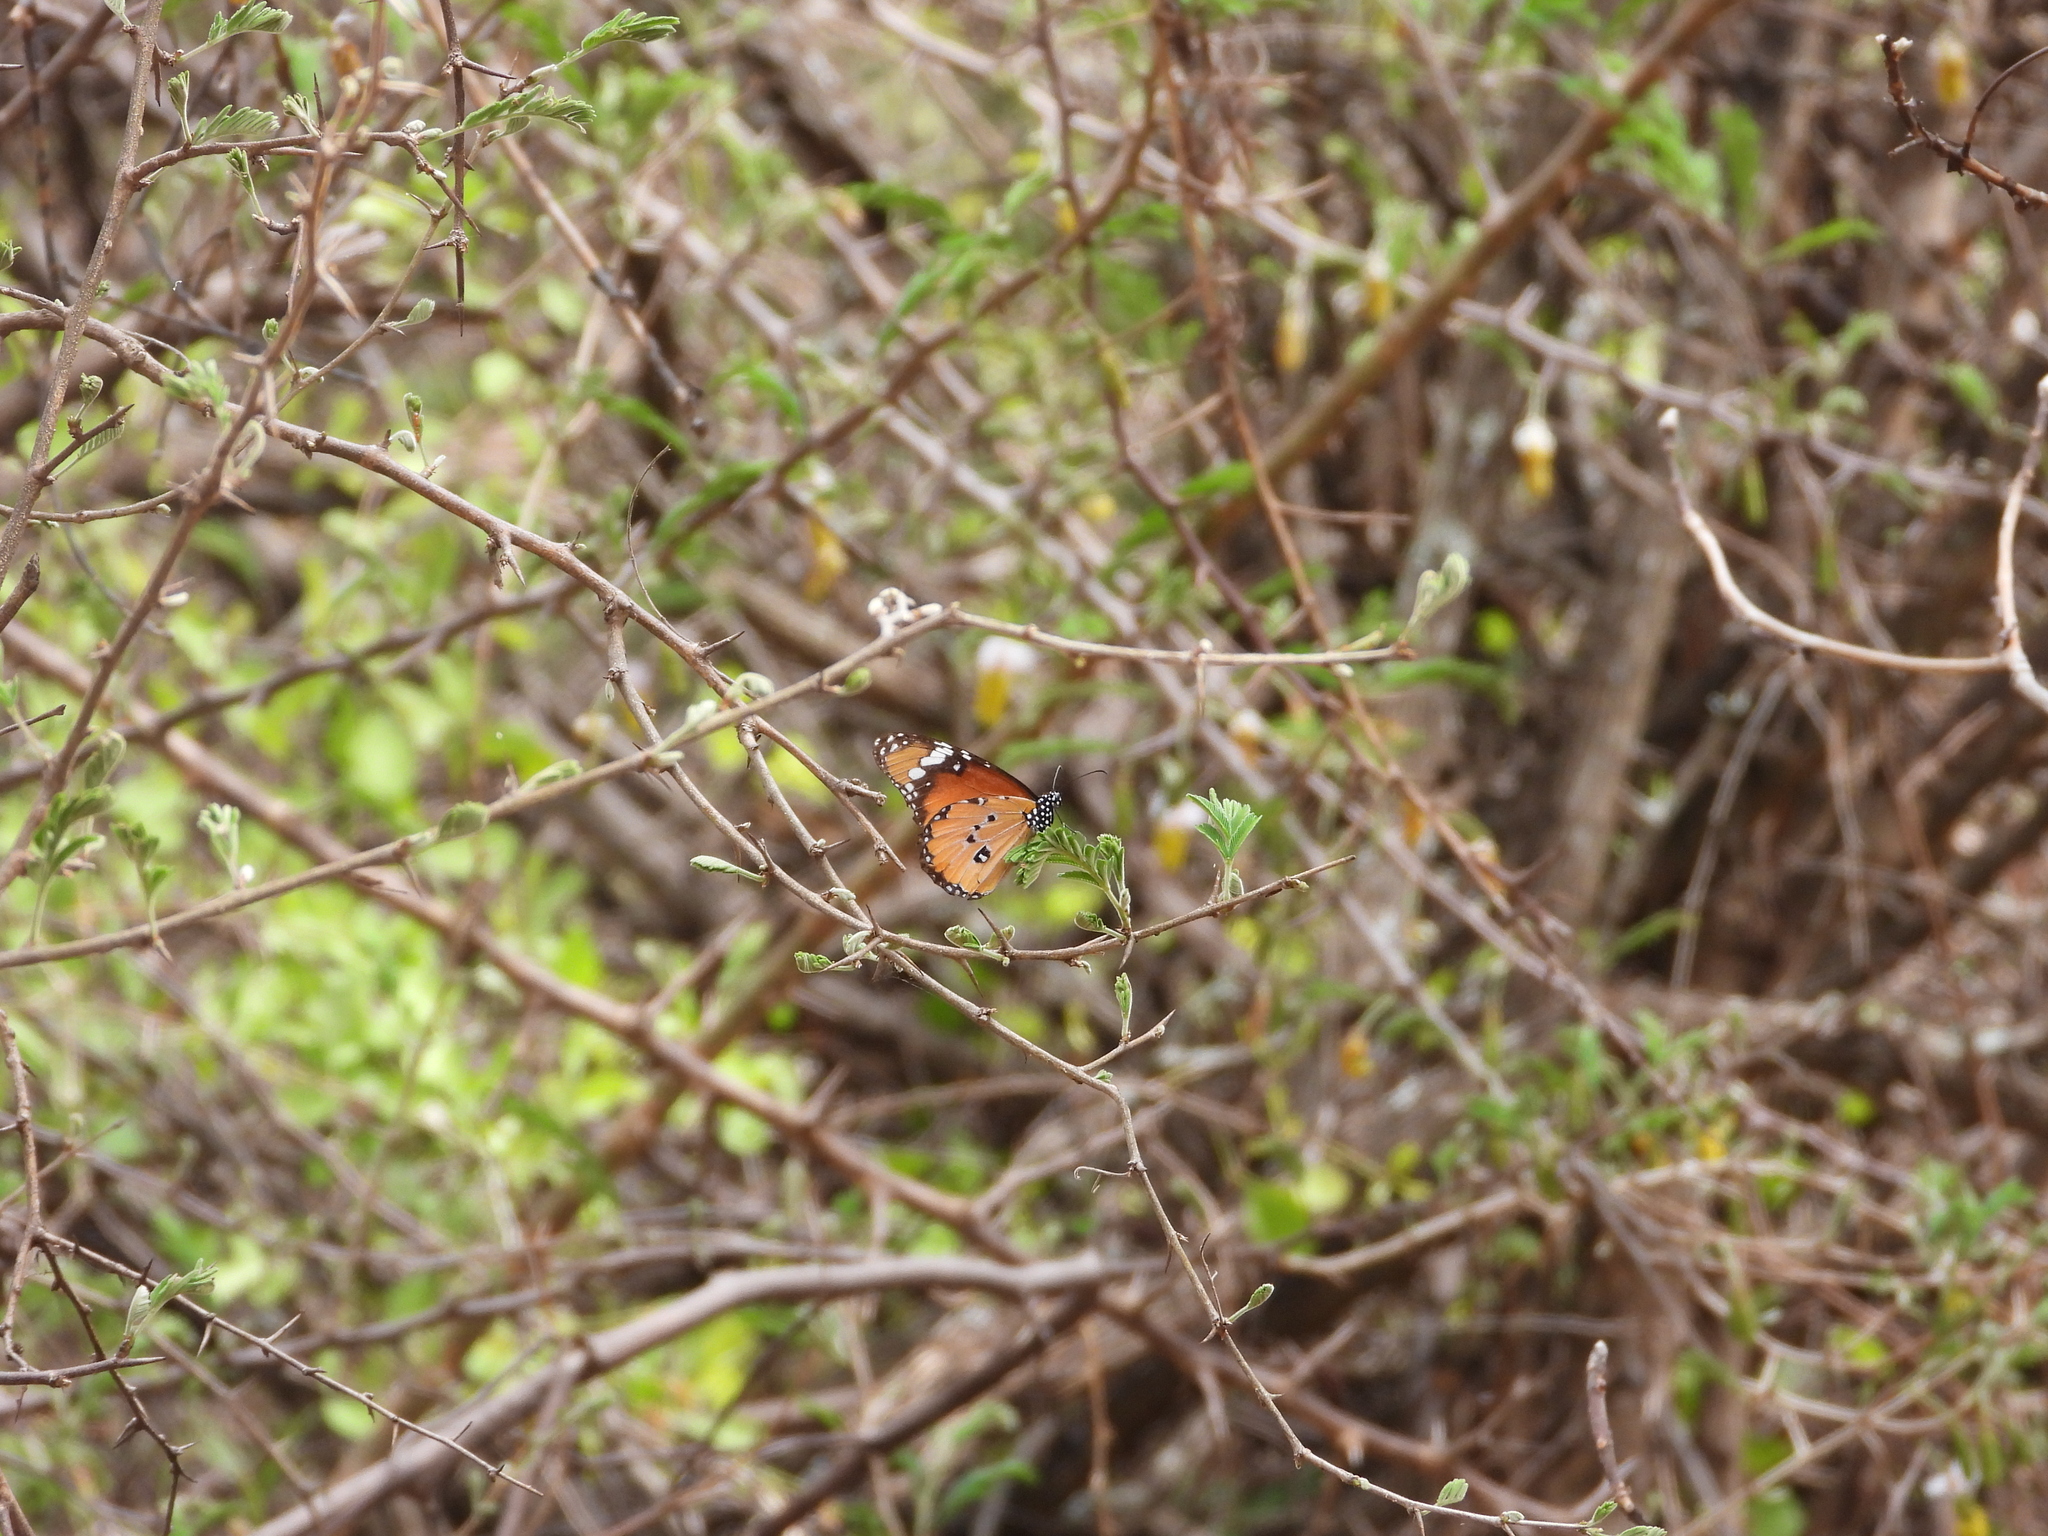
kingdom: Animalia
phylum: Arthropoda
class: Insecta
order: Lepidoptera
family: Nymphalidae
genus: Danaus
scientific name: Danaus chrysippus
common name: Plain tiger
